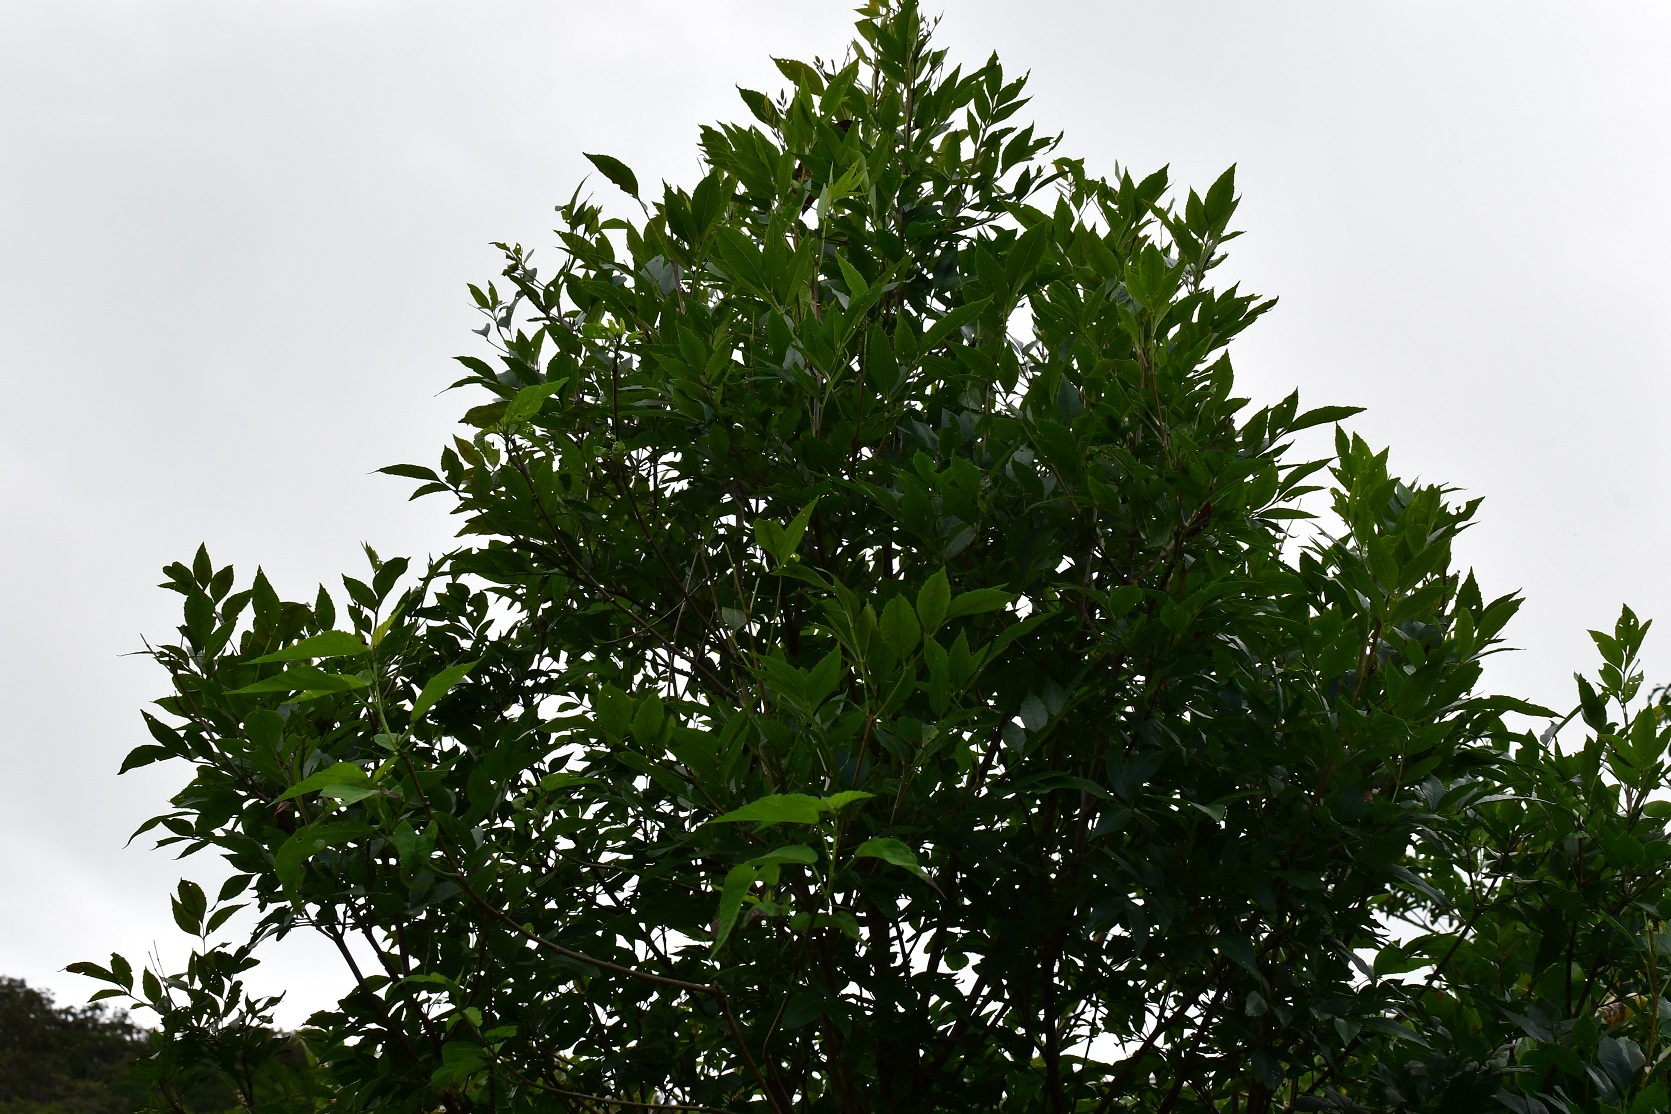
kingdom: Plantae
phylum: Tracheophyta
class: Magnoliopsida
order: Lamiales
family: Oleaceae
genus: Fraxinus
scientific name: Fraxinus purpusii
